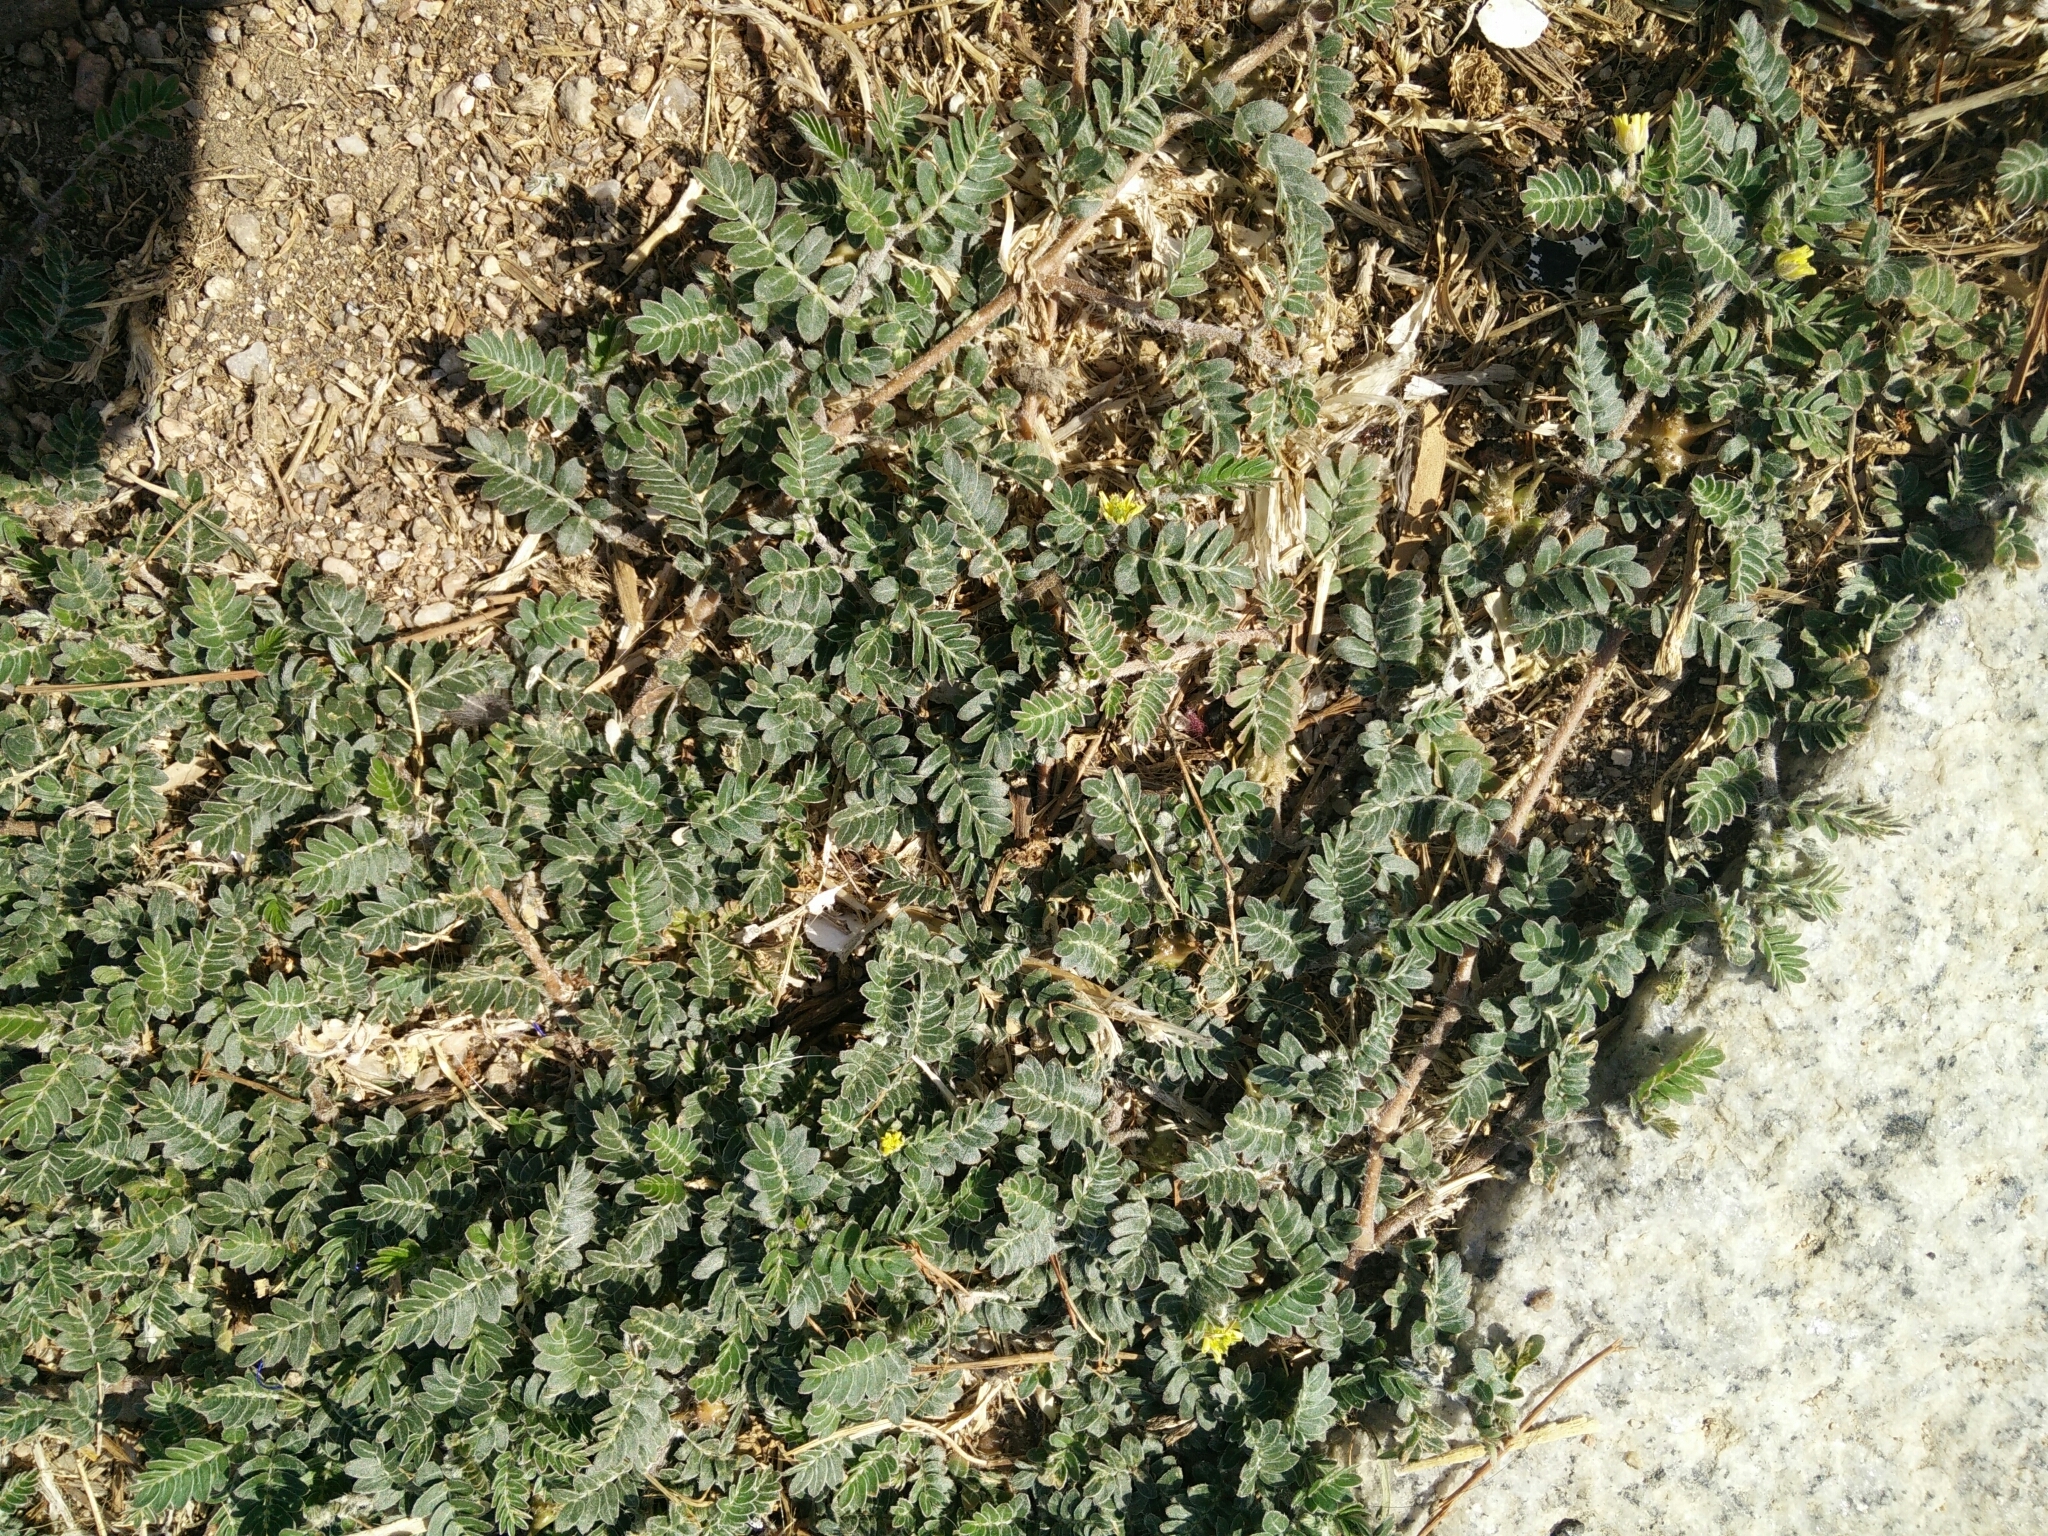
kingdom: Plantae
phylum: Tracheophyta
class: Magnoliopsida
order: Zygophyllales
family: Zygophyllaceae
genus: Tribulus
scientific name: Tribulus terrestris
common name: Puncturevine
